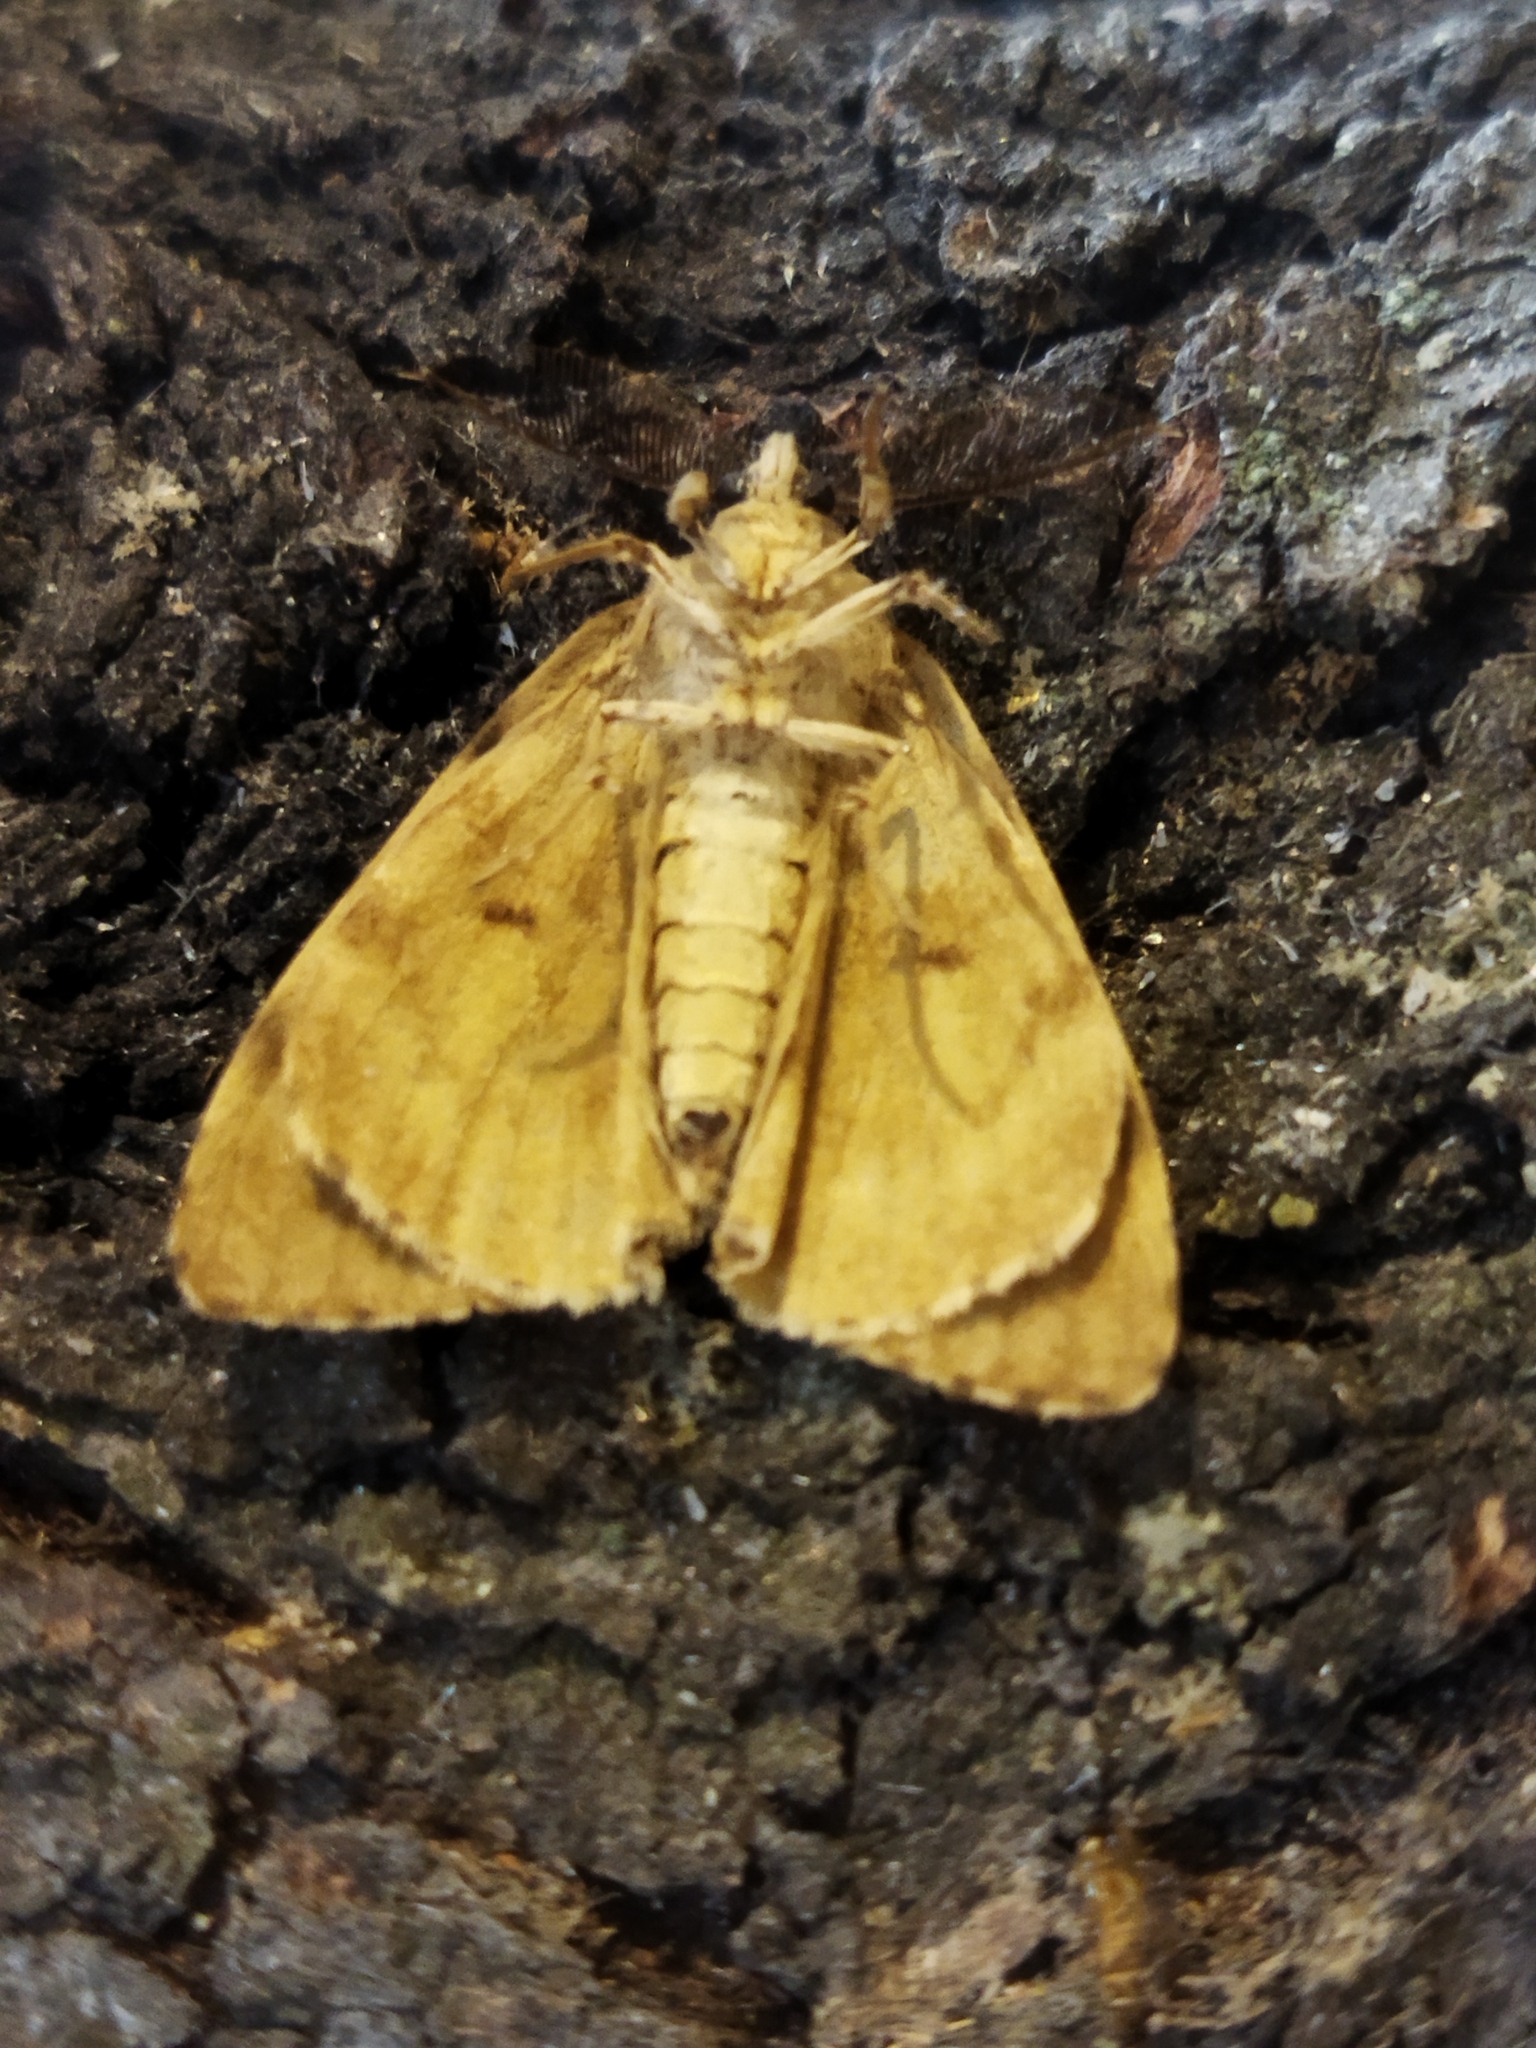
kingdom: Animalia
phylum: Arthropoda
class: Insecta
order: Lepidoptera
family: Erebidae
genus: Lymantria
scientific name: Lymantria dispar
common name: Gypsy moth
